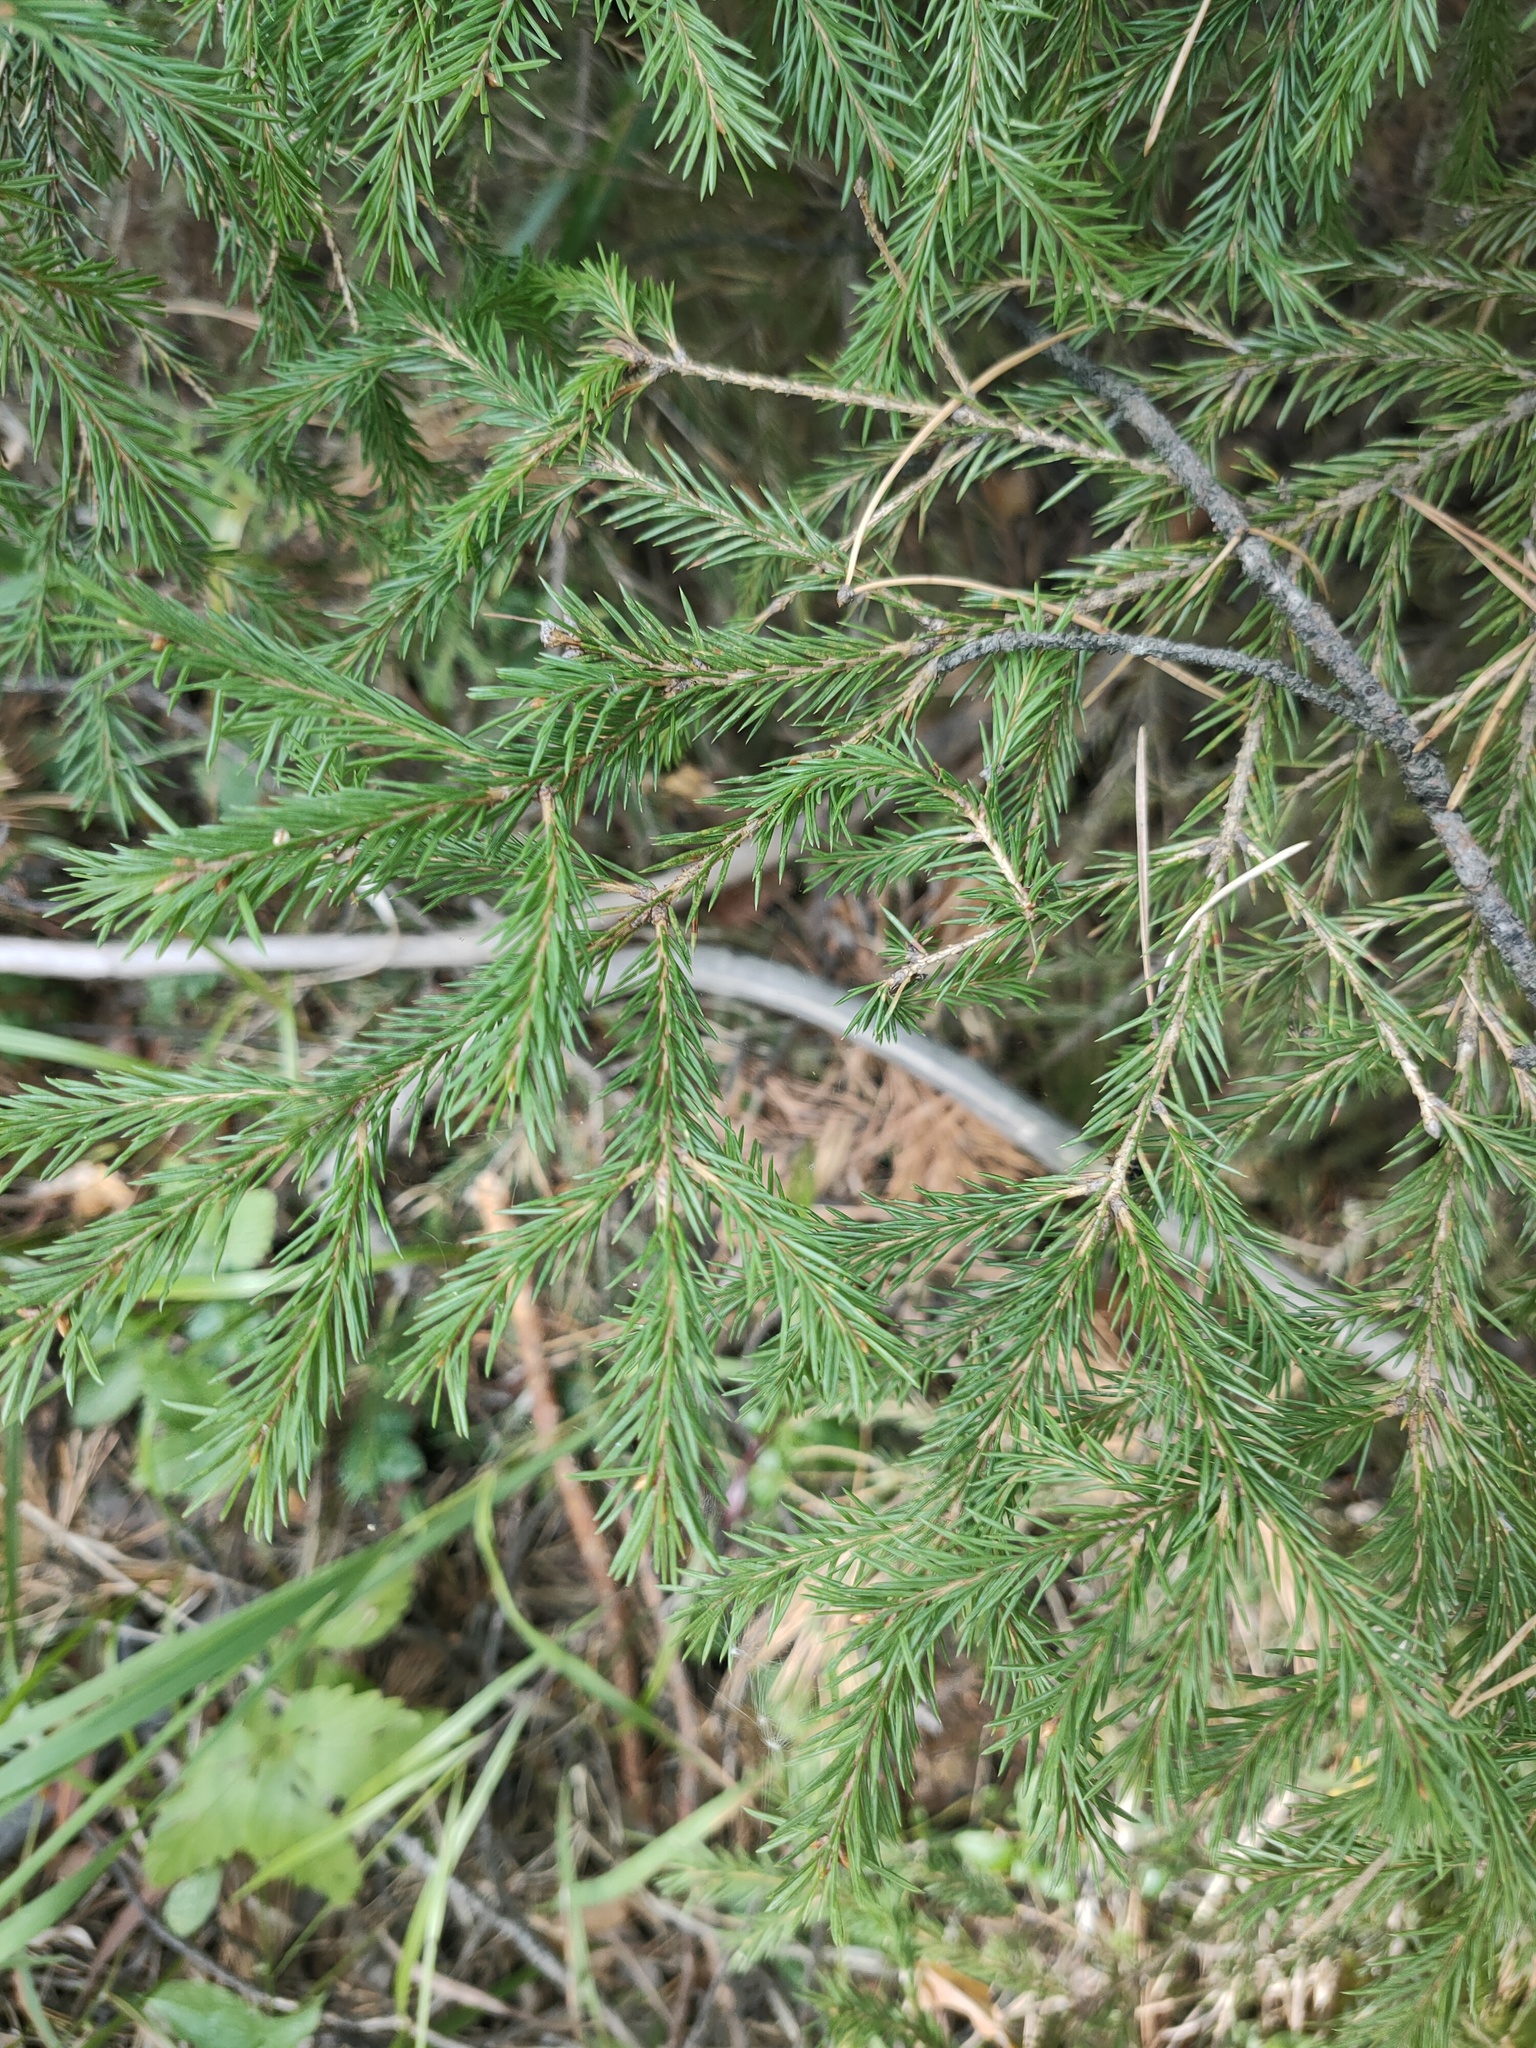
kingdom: Plantae
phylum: Tracheophyta
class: Pinopsida
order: Pinales
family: Pinaceae
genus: Picea
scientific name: Picea
